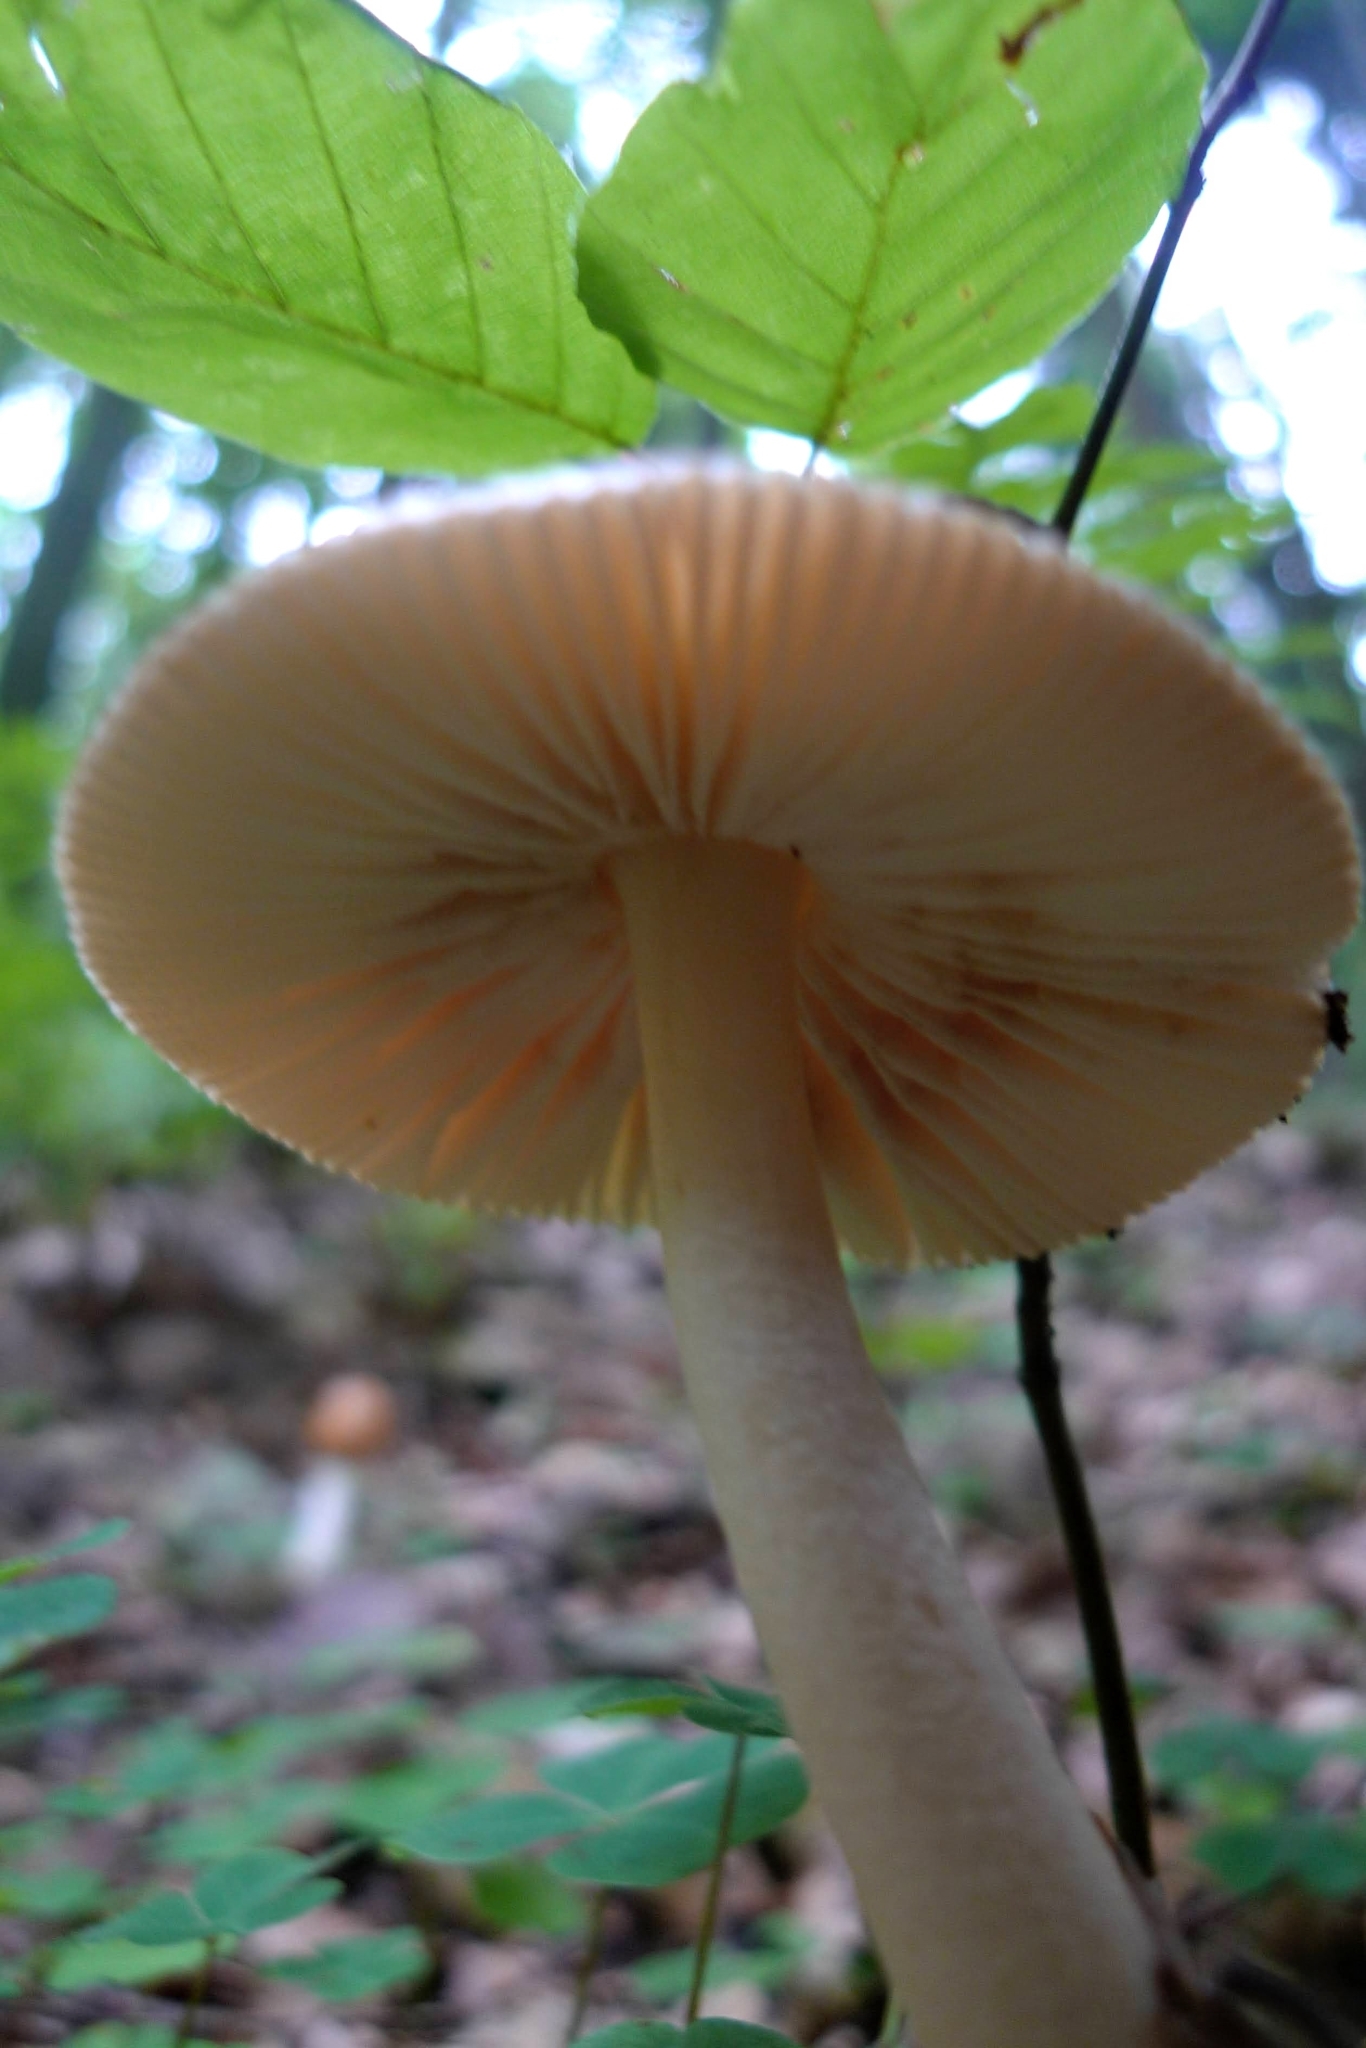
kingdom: Fungi
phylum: Basidiomycota
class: Agaricomycetes
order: Agaricales
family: Amanitaceae
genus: Amanita
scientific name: Amanita fulva
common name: Tawny grisette
